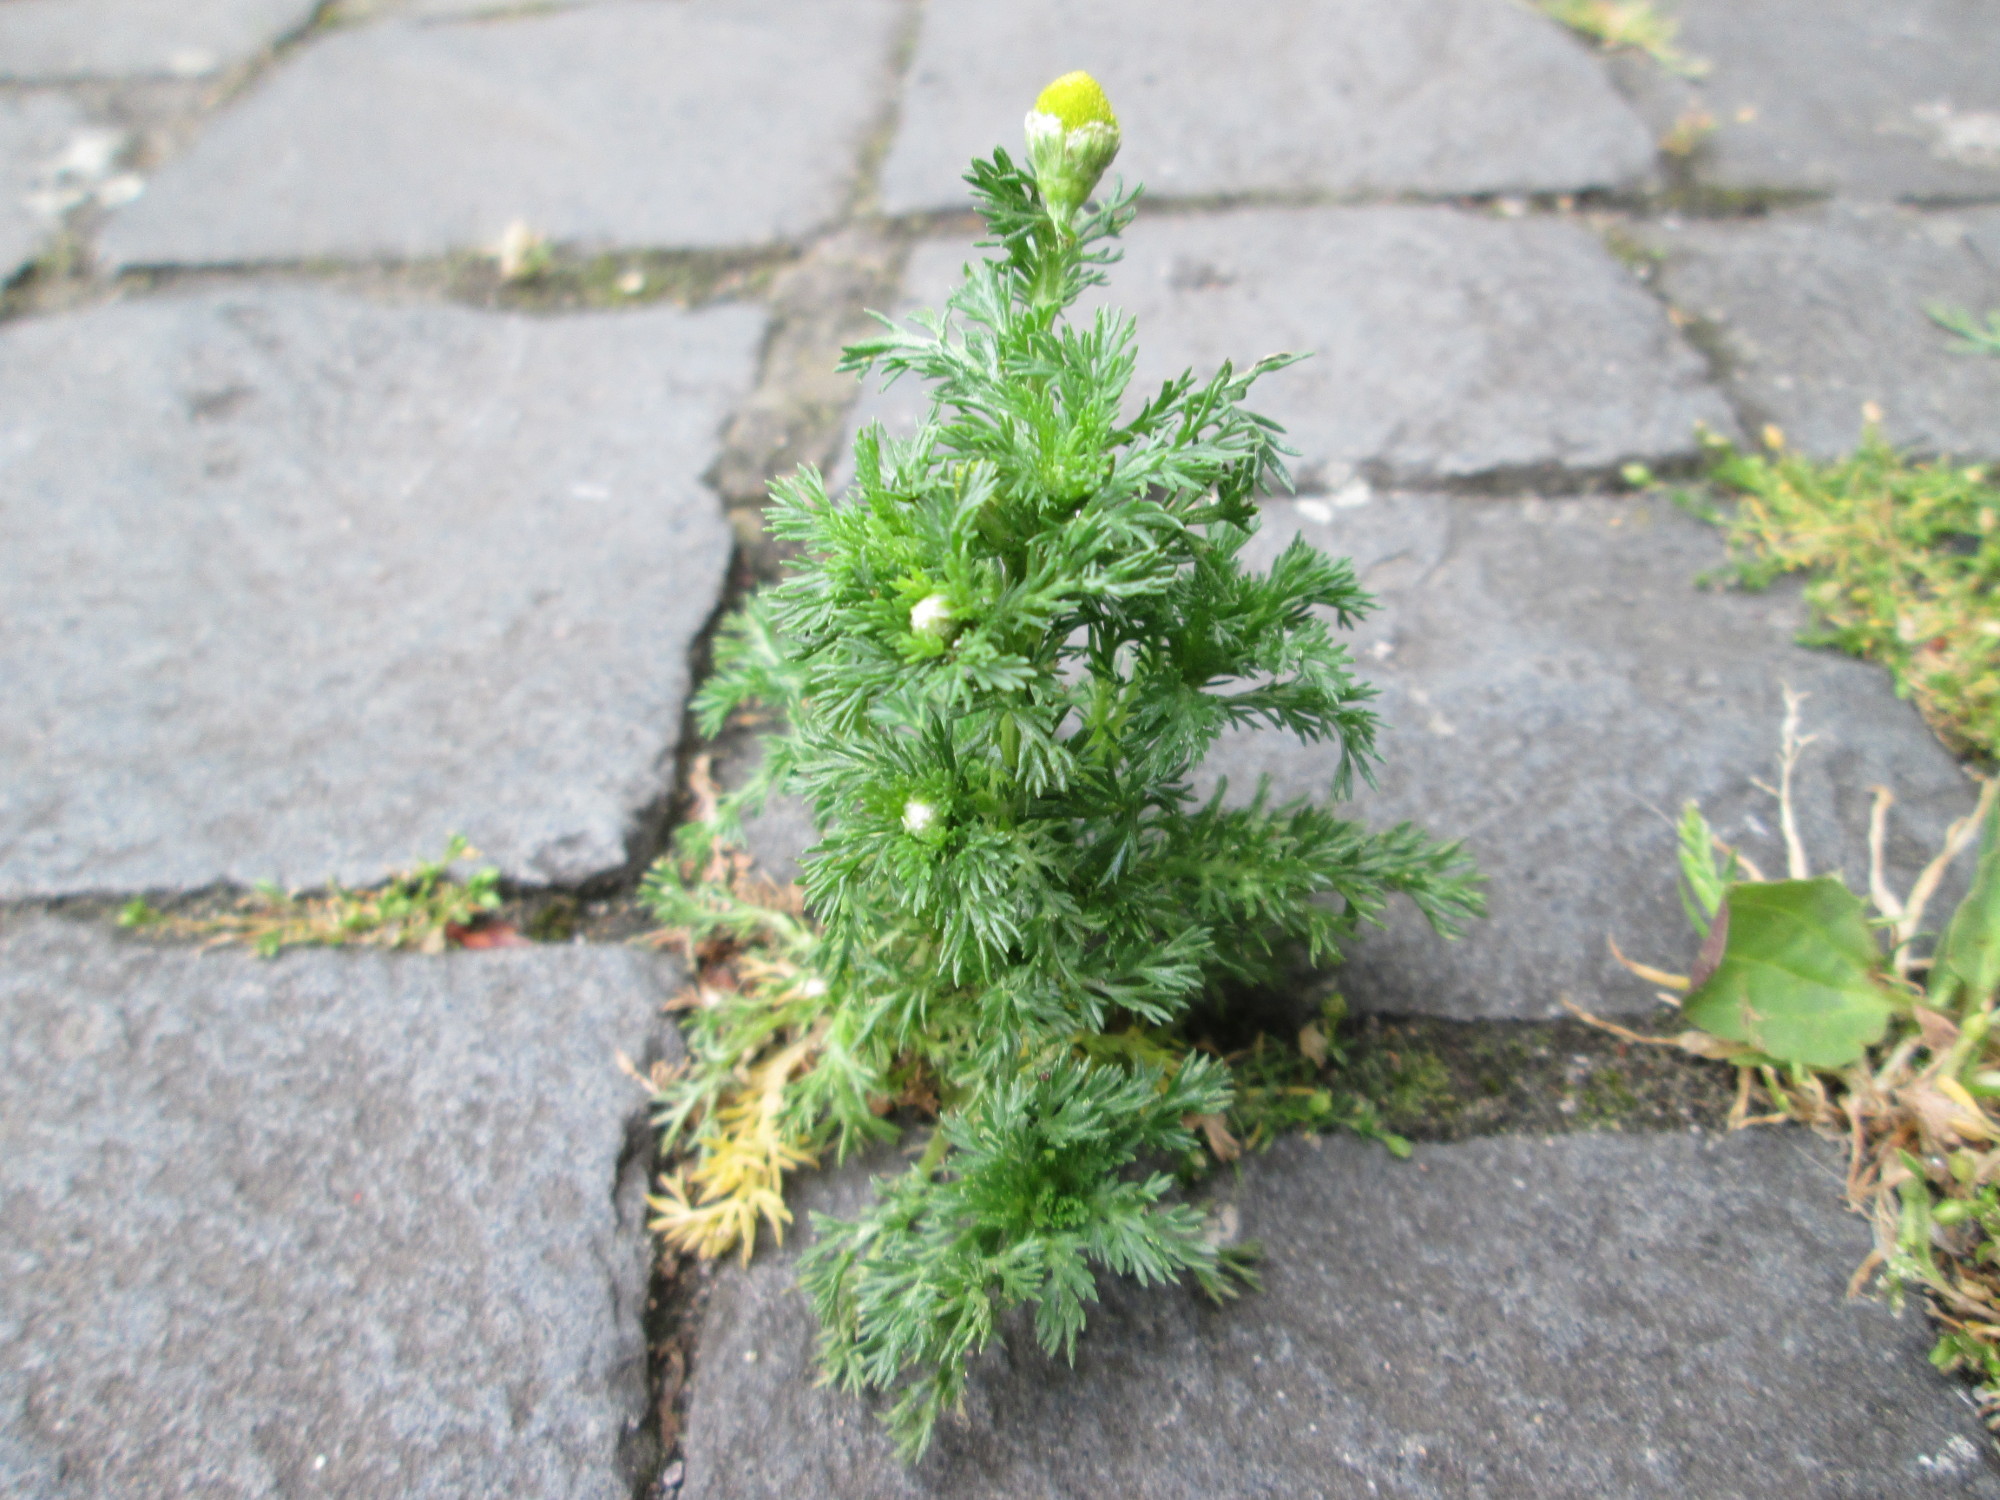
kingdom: Plantae
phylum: Tracheophyta
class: Magnoliopsida
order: Asterales
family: Asteraceae
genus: Matricaria
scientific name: Matricaria discoidea
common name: Disc mayweed
